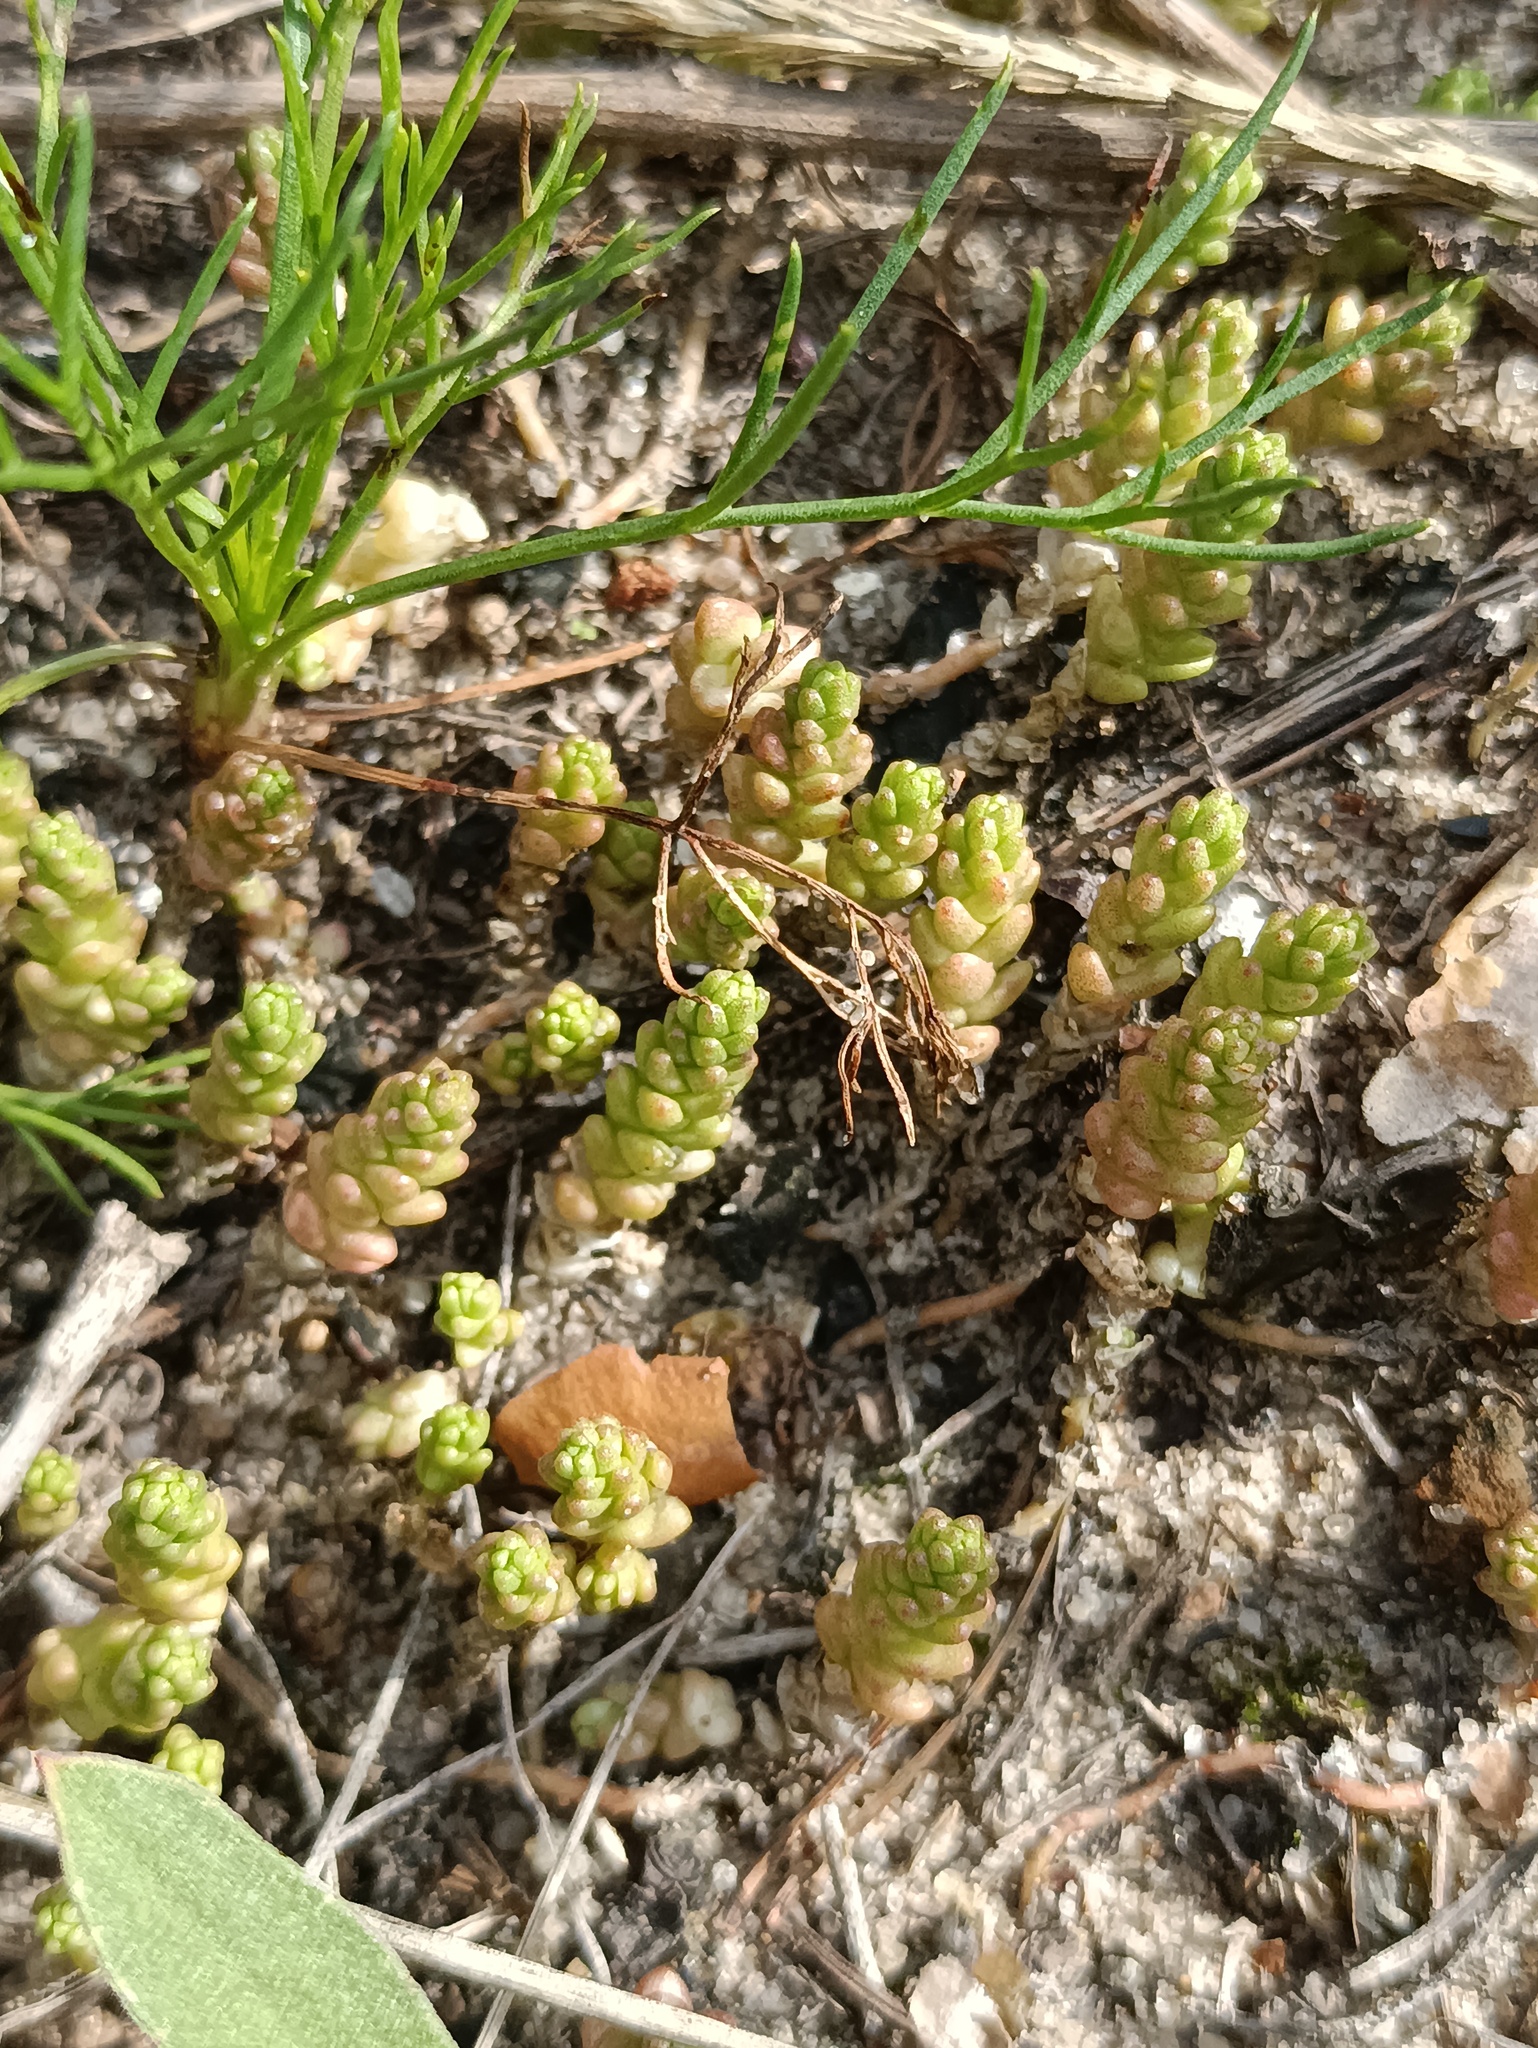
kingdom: Plantae
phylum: Tracheophyta
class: Magnoliopsida
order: Saxifragales
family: Crassulaceae
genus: Sedum
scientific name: Sedum acre
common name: Biting stonecrop
